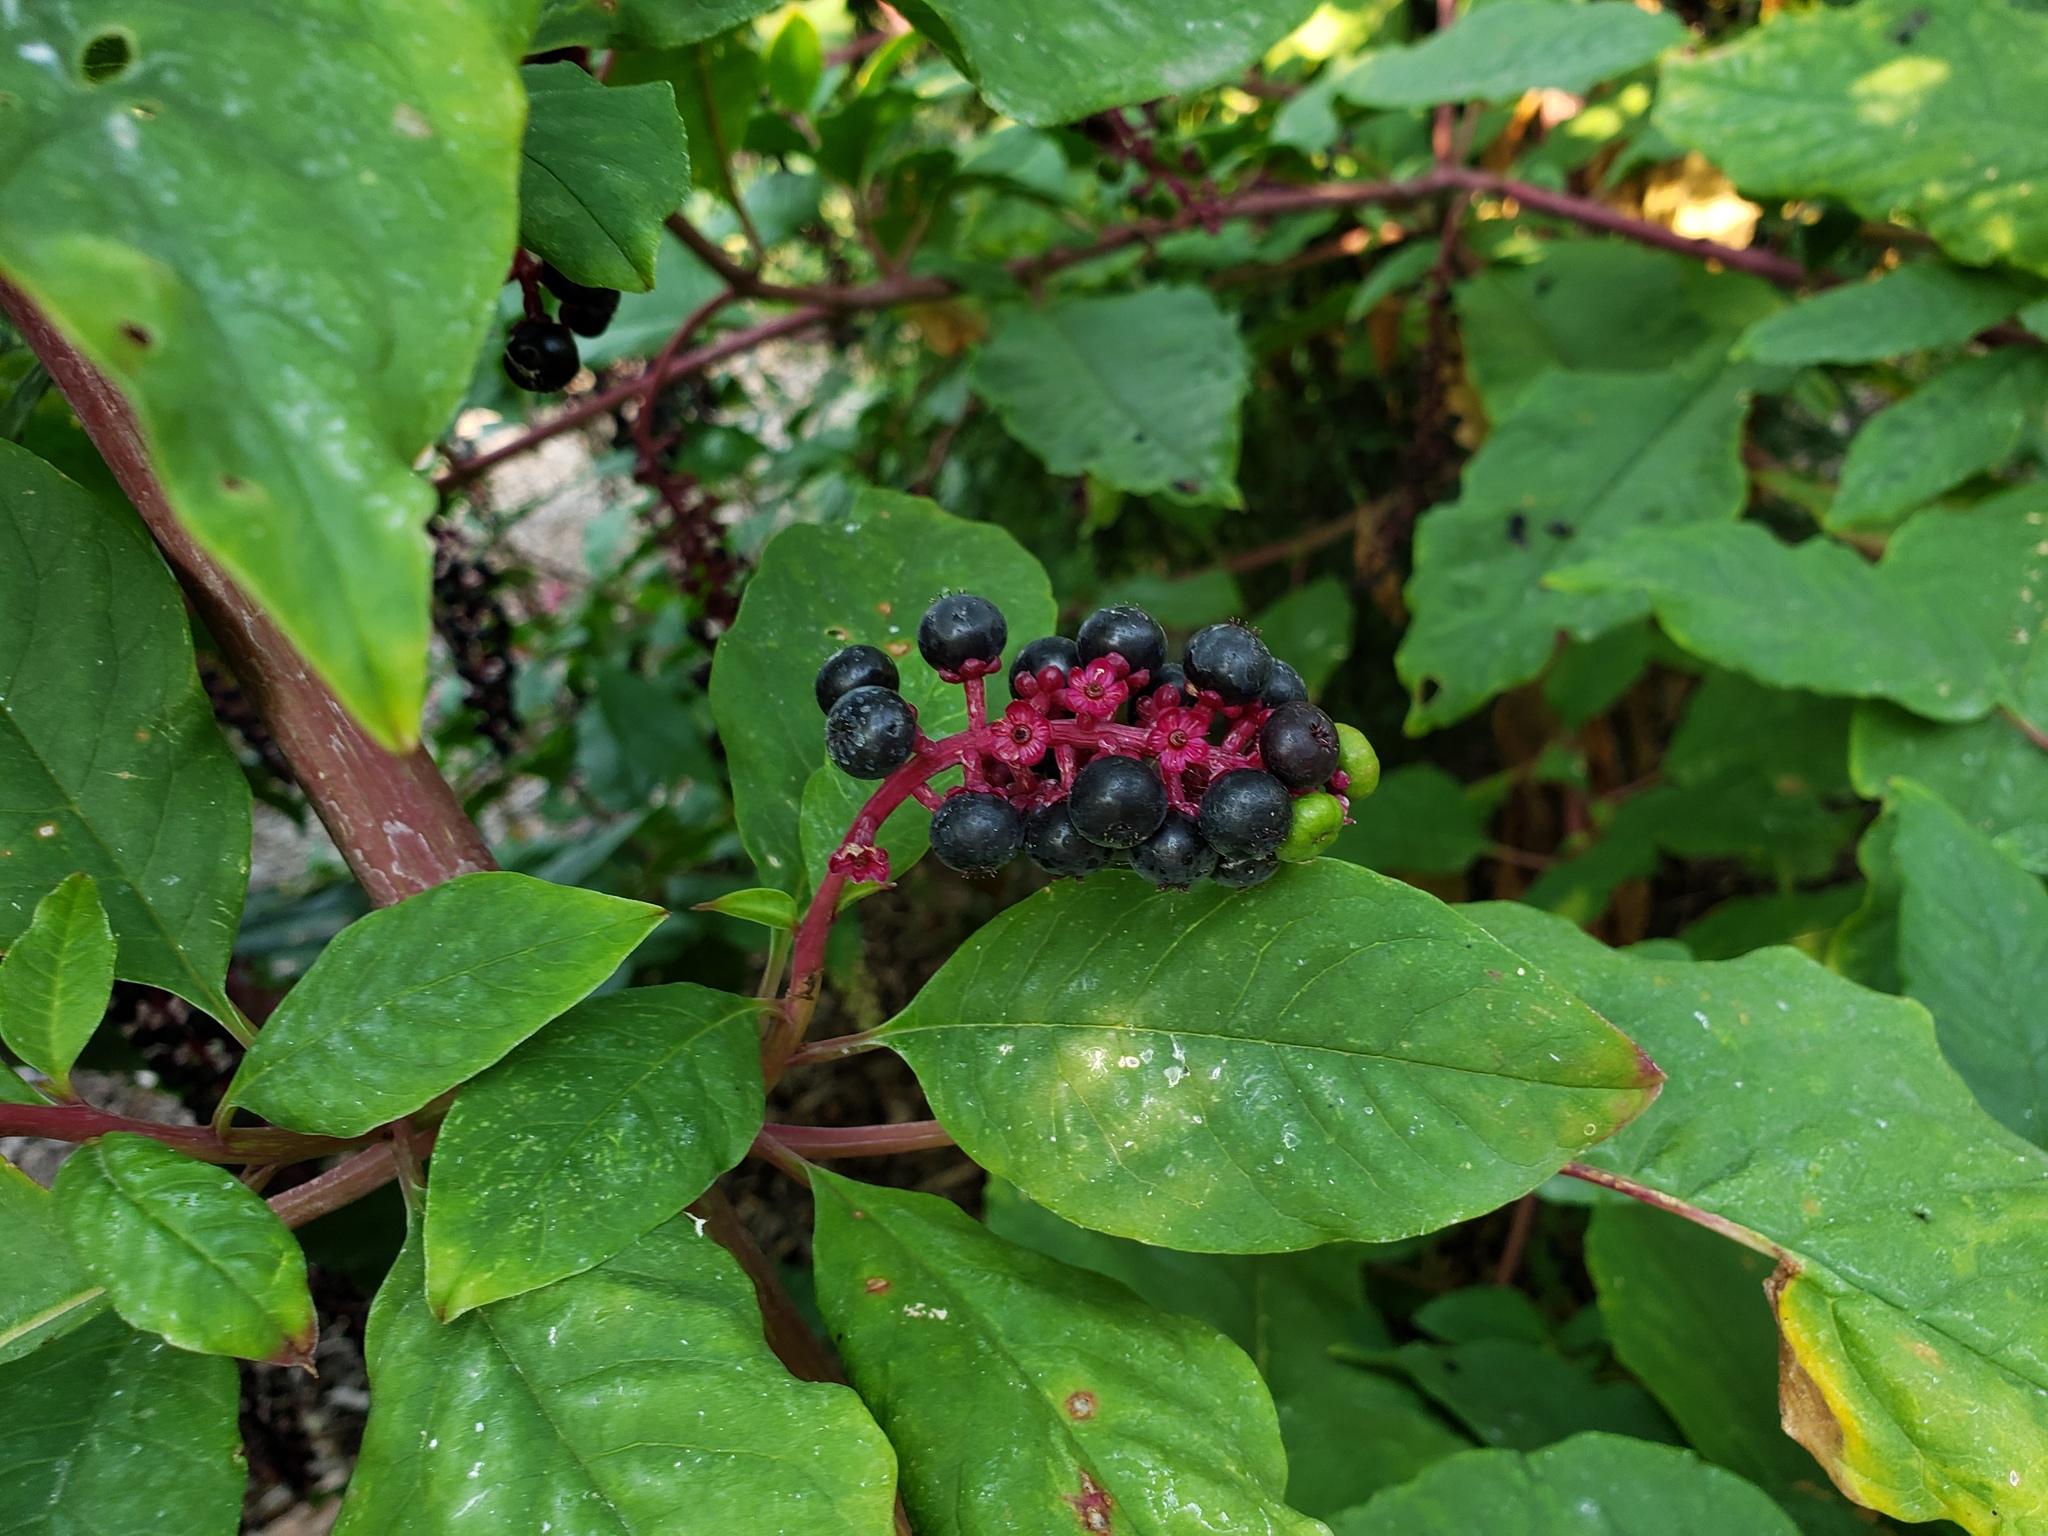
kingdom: Plantae
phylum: Tracheophyta
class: Magnoliopsida
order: Caryophyllales
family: Phytolaccaceae
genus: Phytolacca
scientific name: Phytolacca americana
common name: American pokeweed
